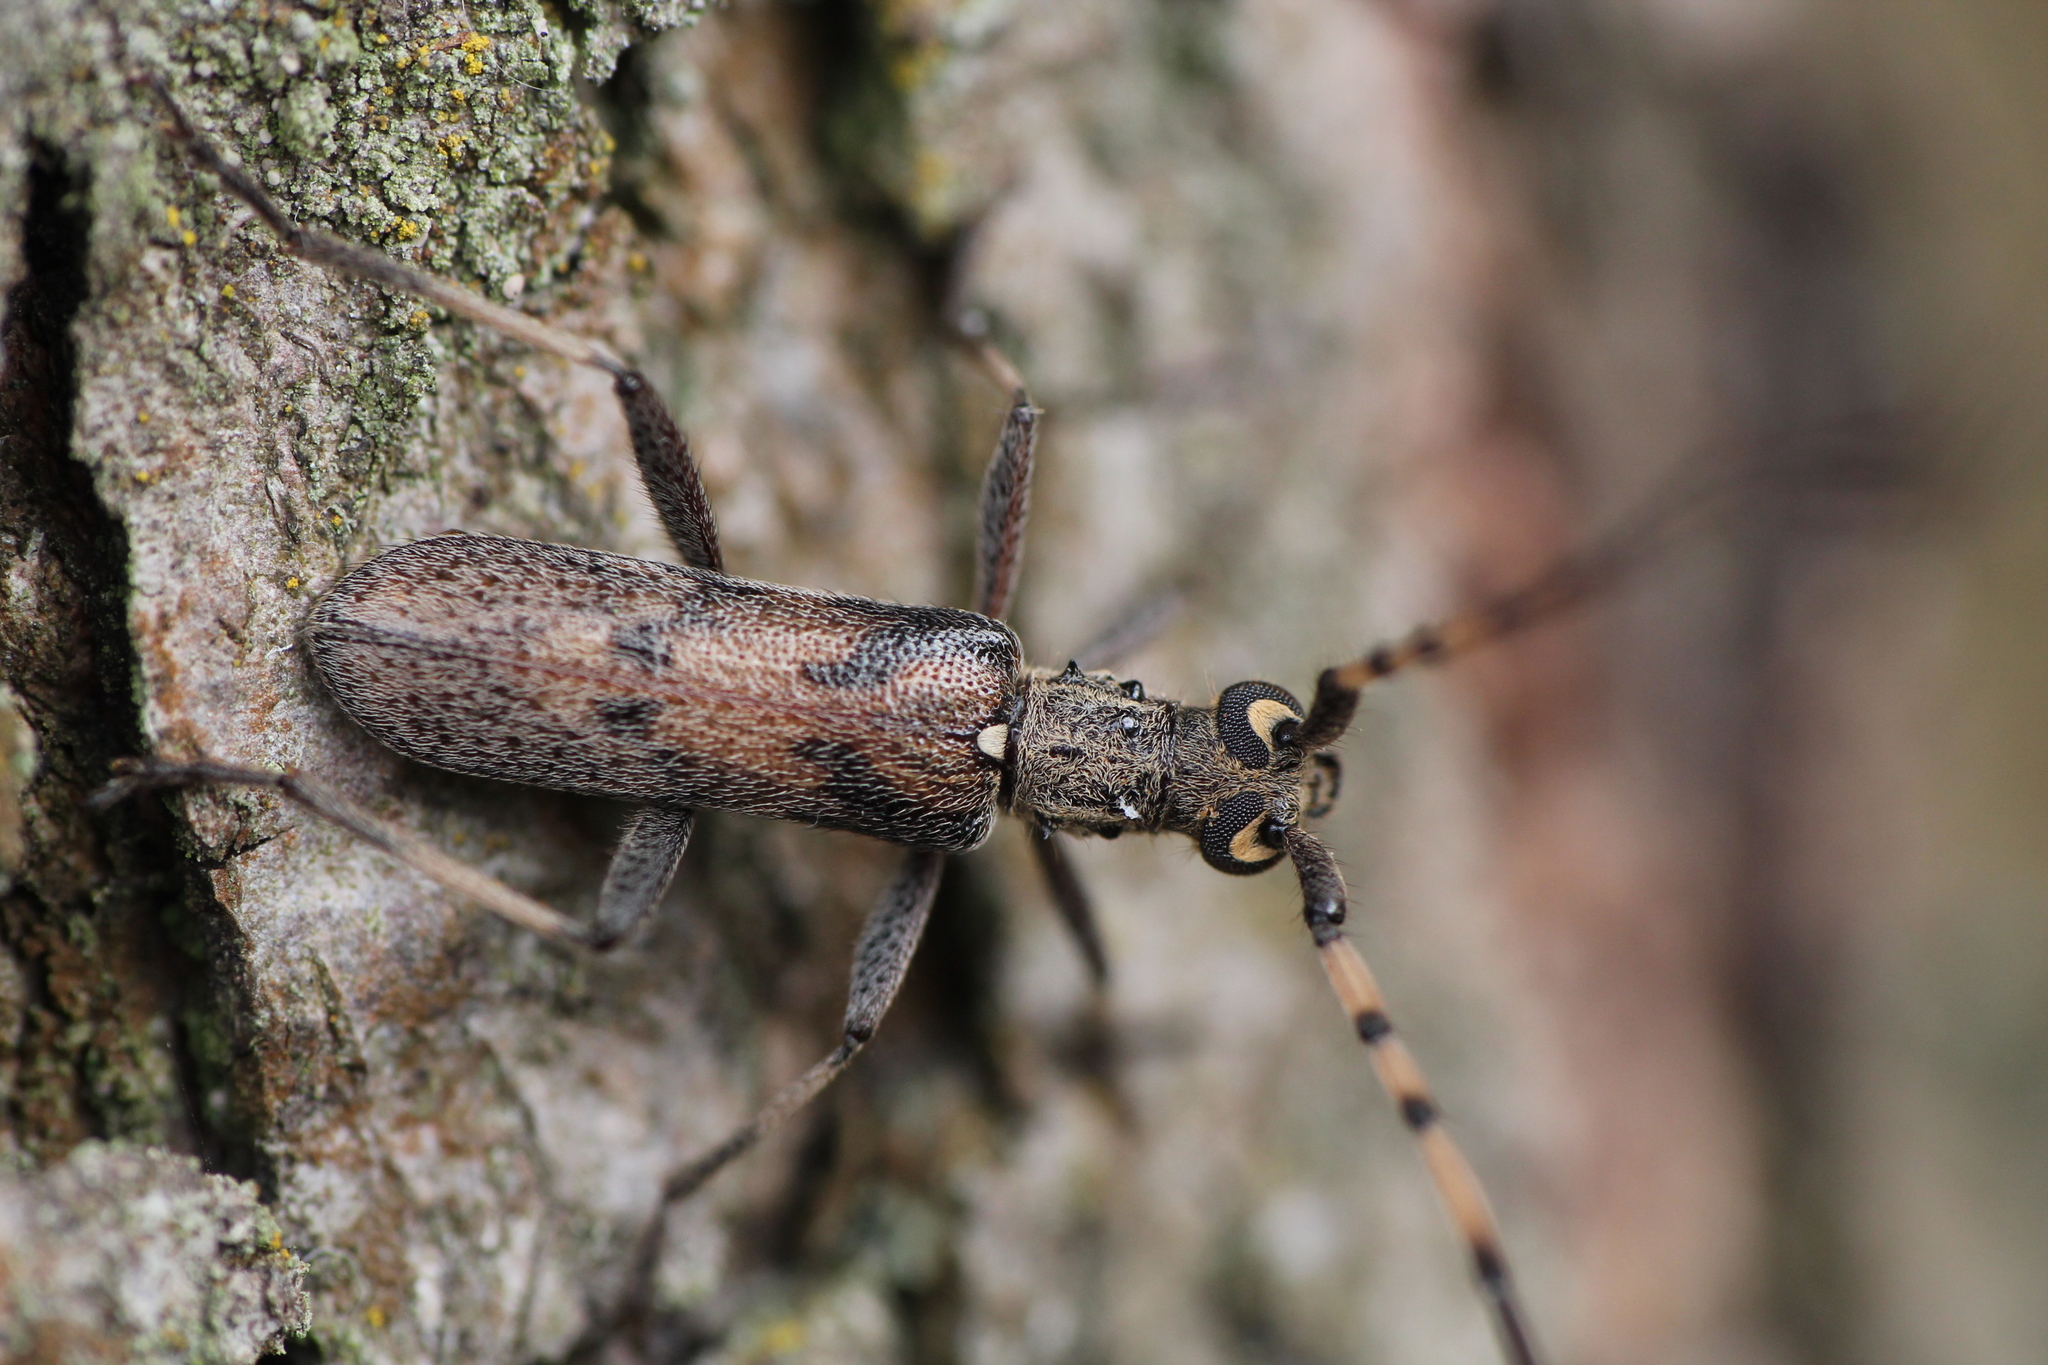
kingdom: Animalia
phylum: Arthropoda
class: Insecta
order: Coleoptera
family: Cerambycidae
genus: Didymocantha
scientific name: Didymocantha obliqua
